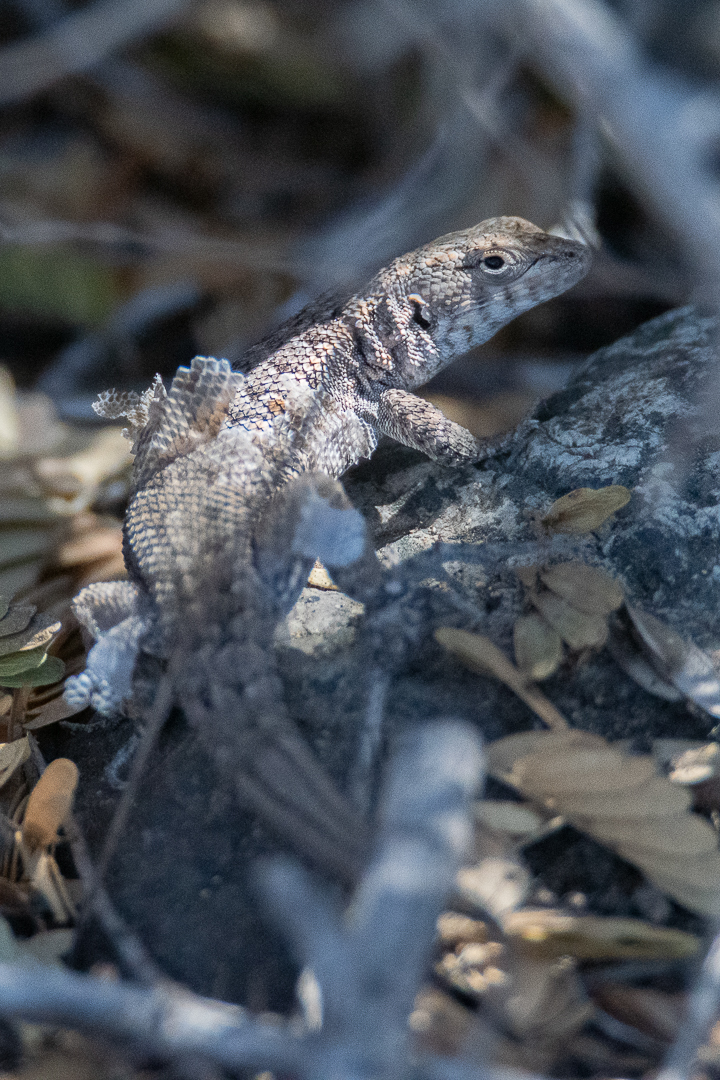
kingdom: Animalia
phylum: Chordata
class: Squamata
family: Liolaemidae
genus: Liolaemus
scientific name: Liolaemus platei
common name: Braided tree iguana
